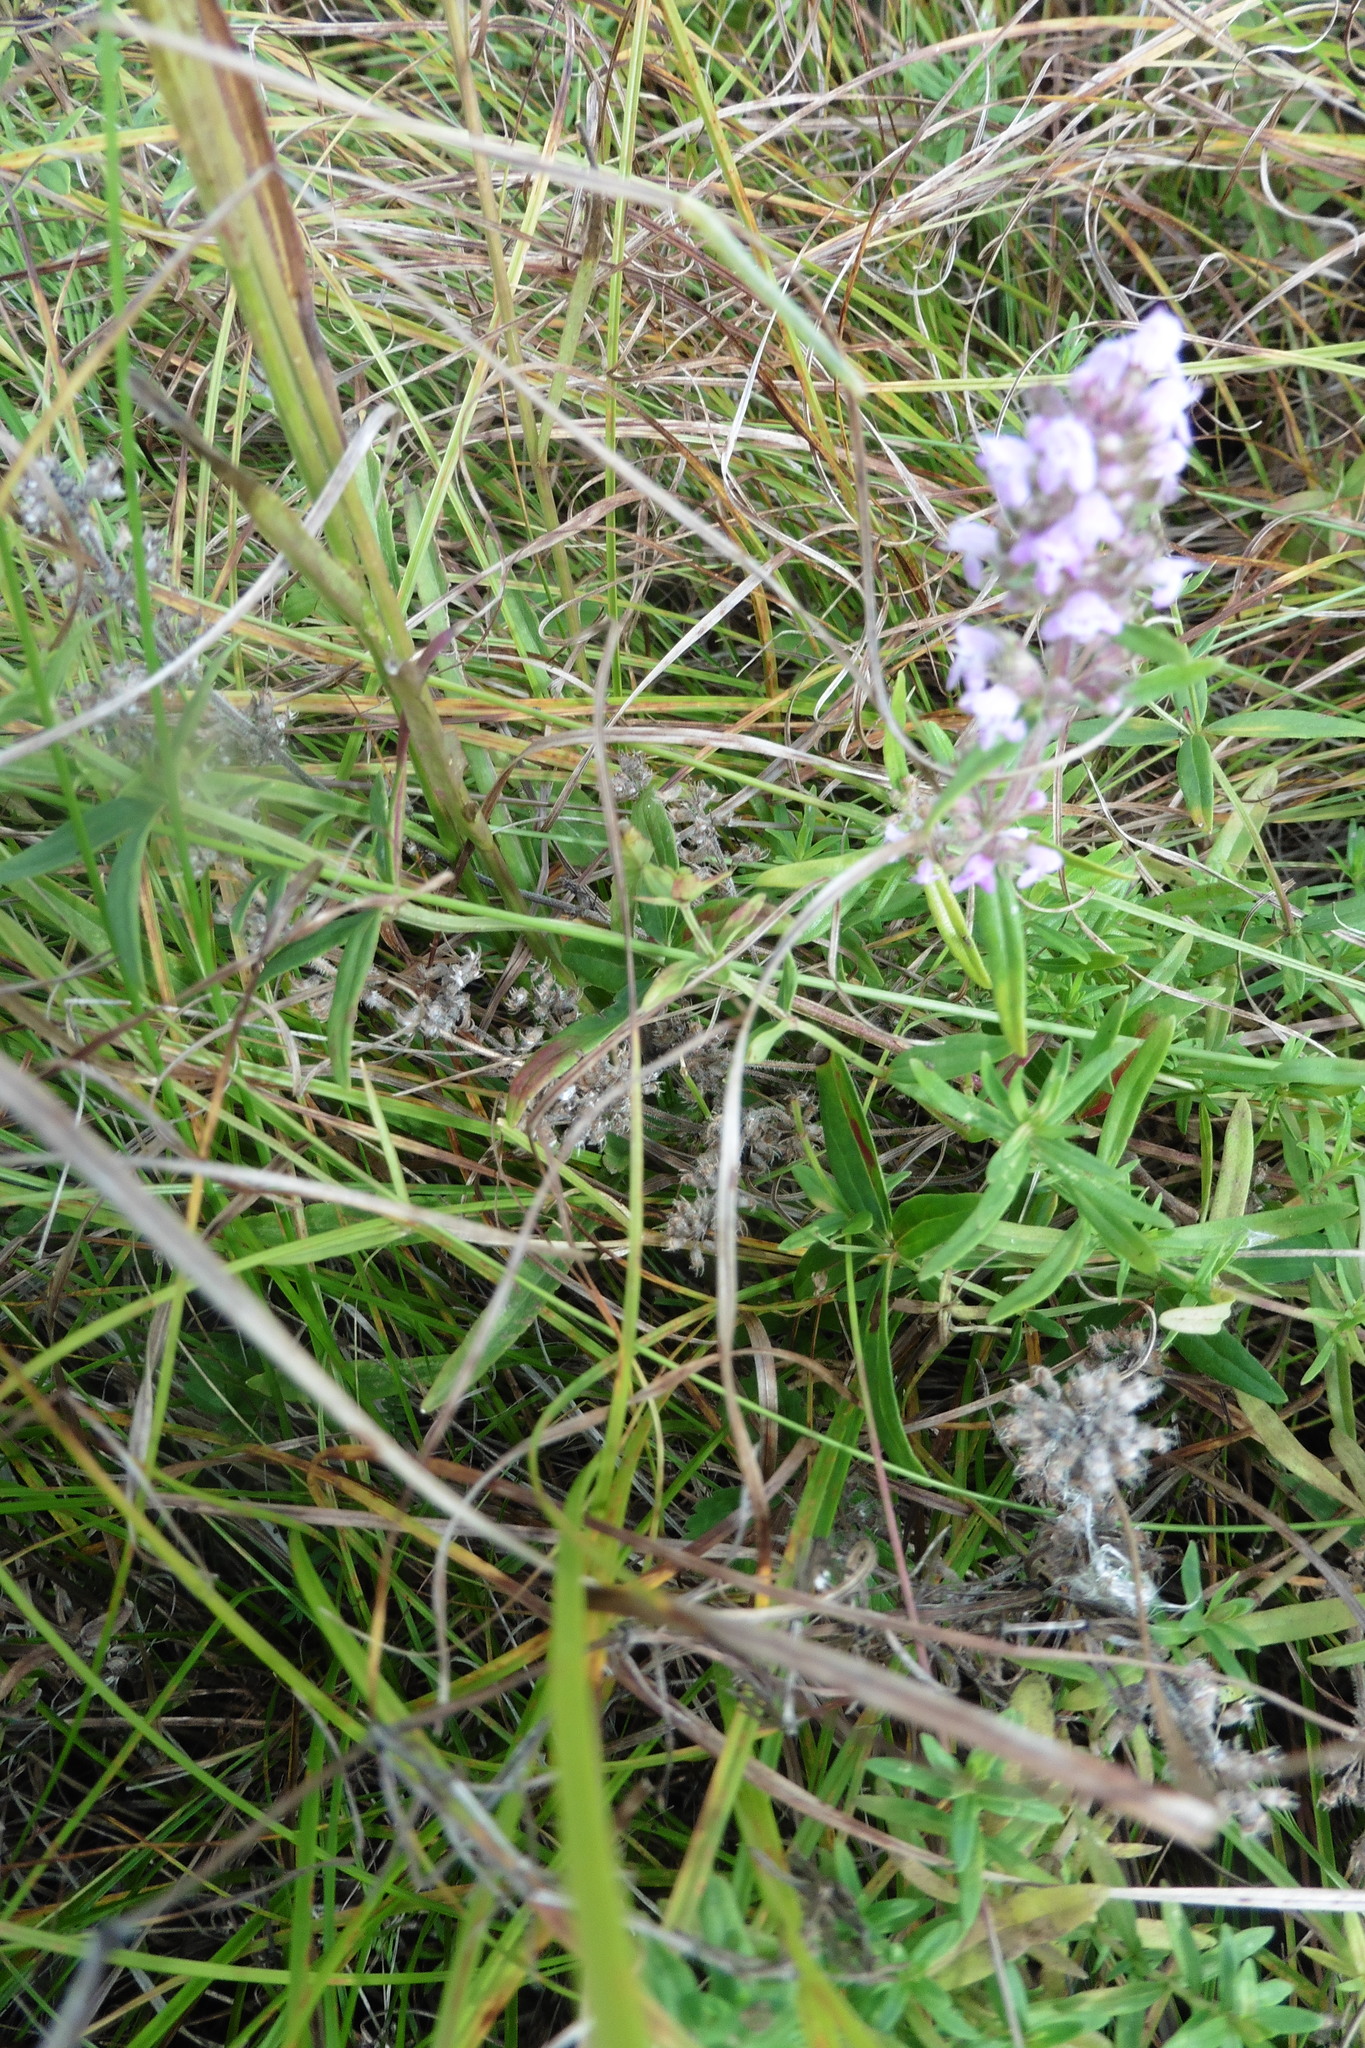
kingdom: Plantae
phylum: Tracheophyta
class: Magnoliopsida
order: Lamiales
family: Lamiaceae
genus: Thymus
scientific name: Thymus pannonicus
